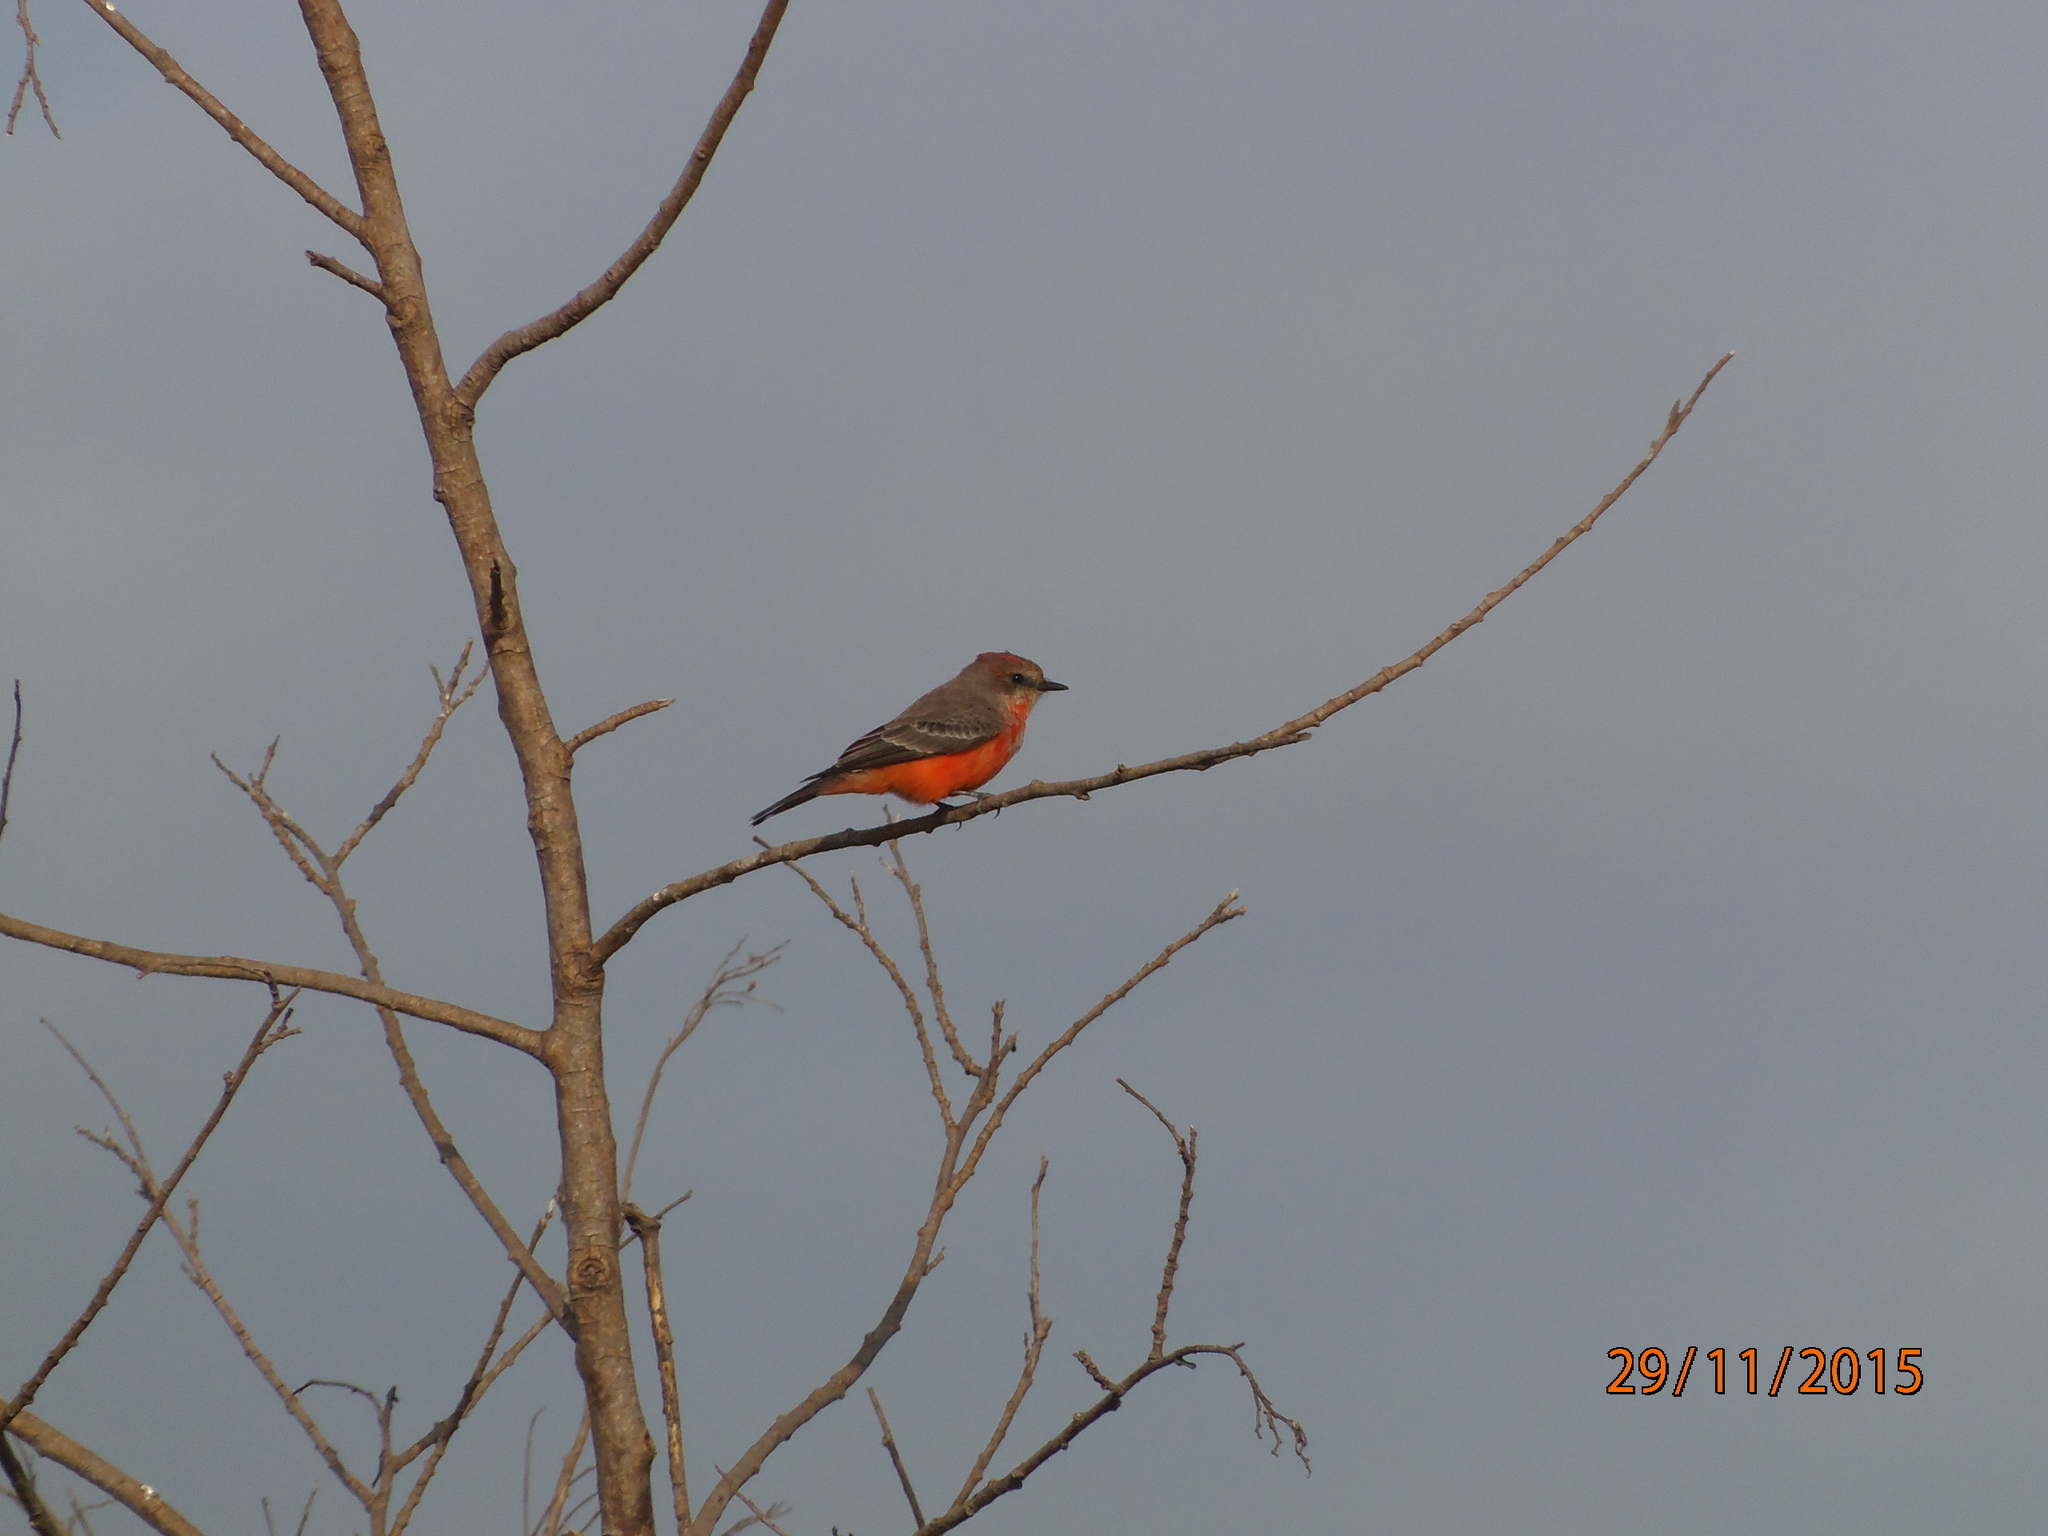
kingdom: Animalia
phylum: Chordata
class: Aves
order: Passeriformes
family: Tyrannidae
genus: Pyrocephalus
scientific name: Pyrocephalus rubinus
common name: Vermilion flycatcher
